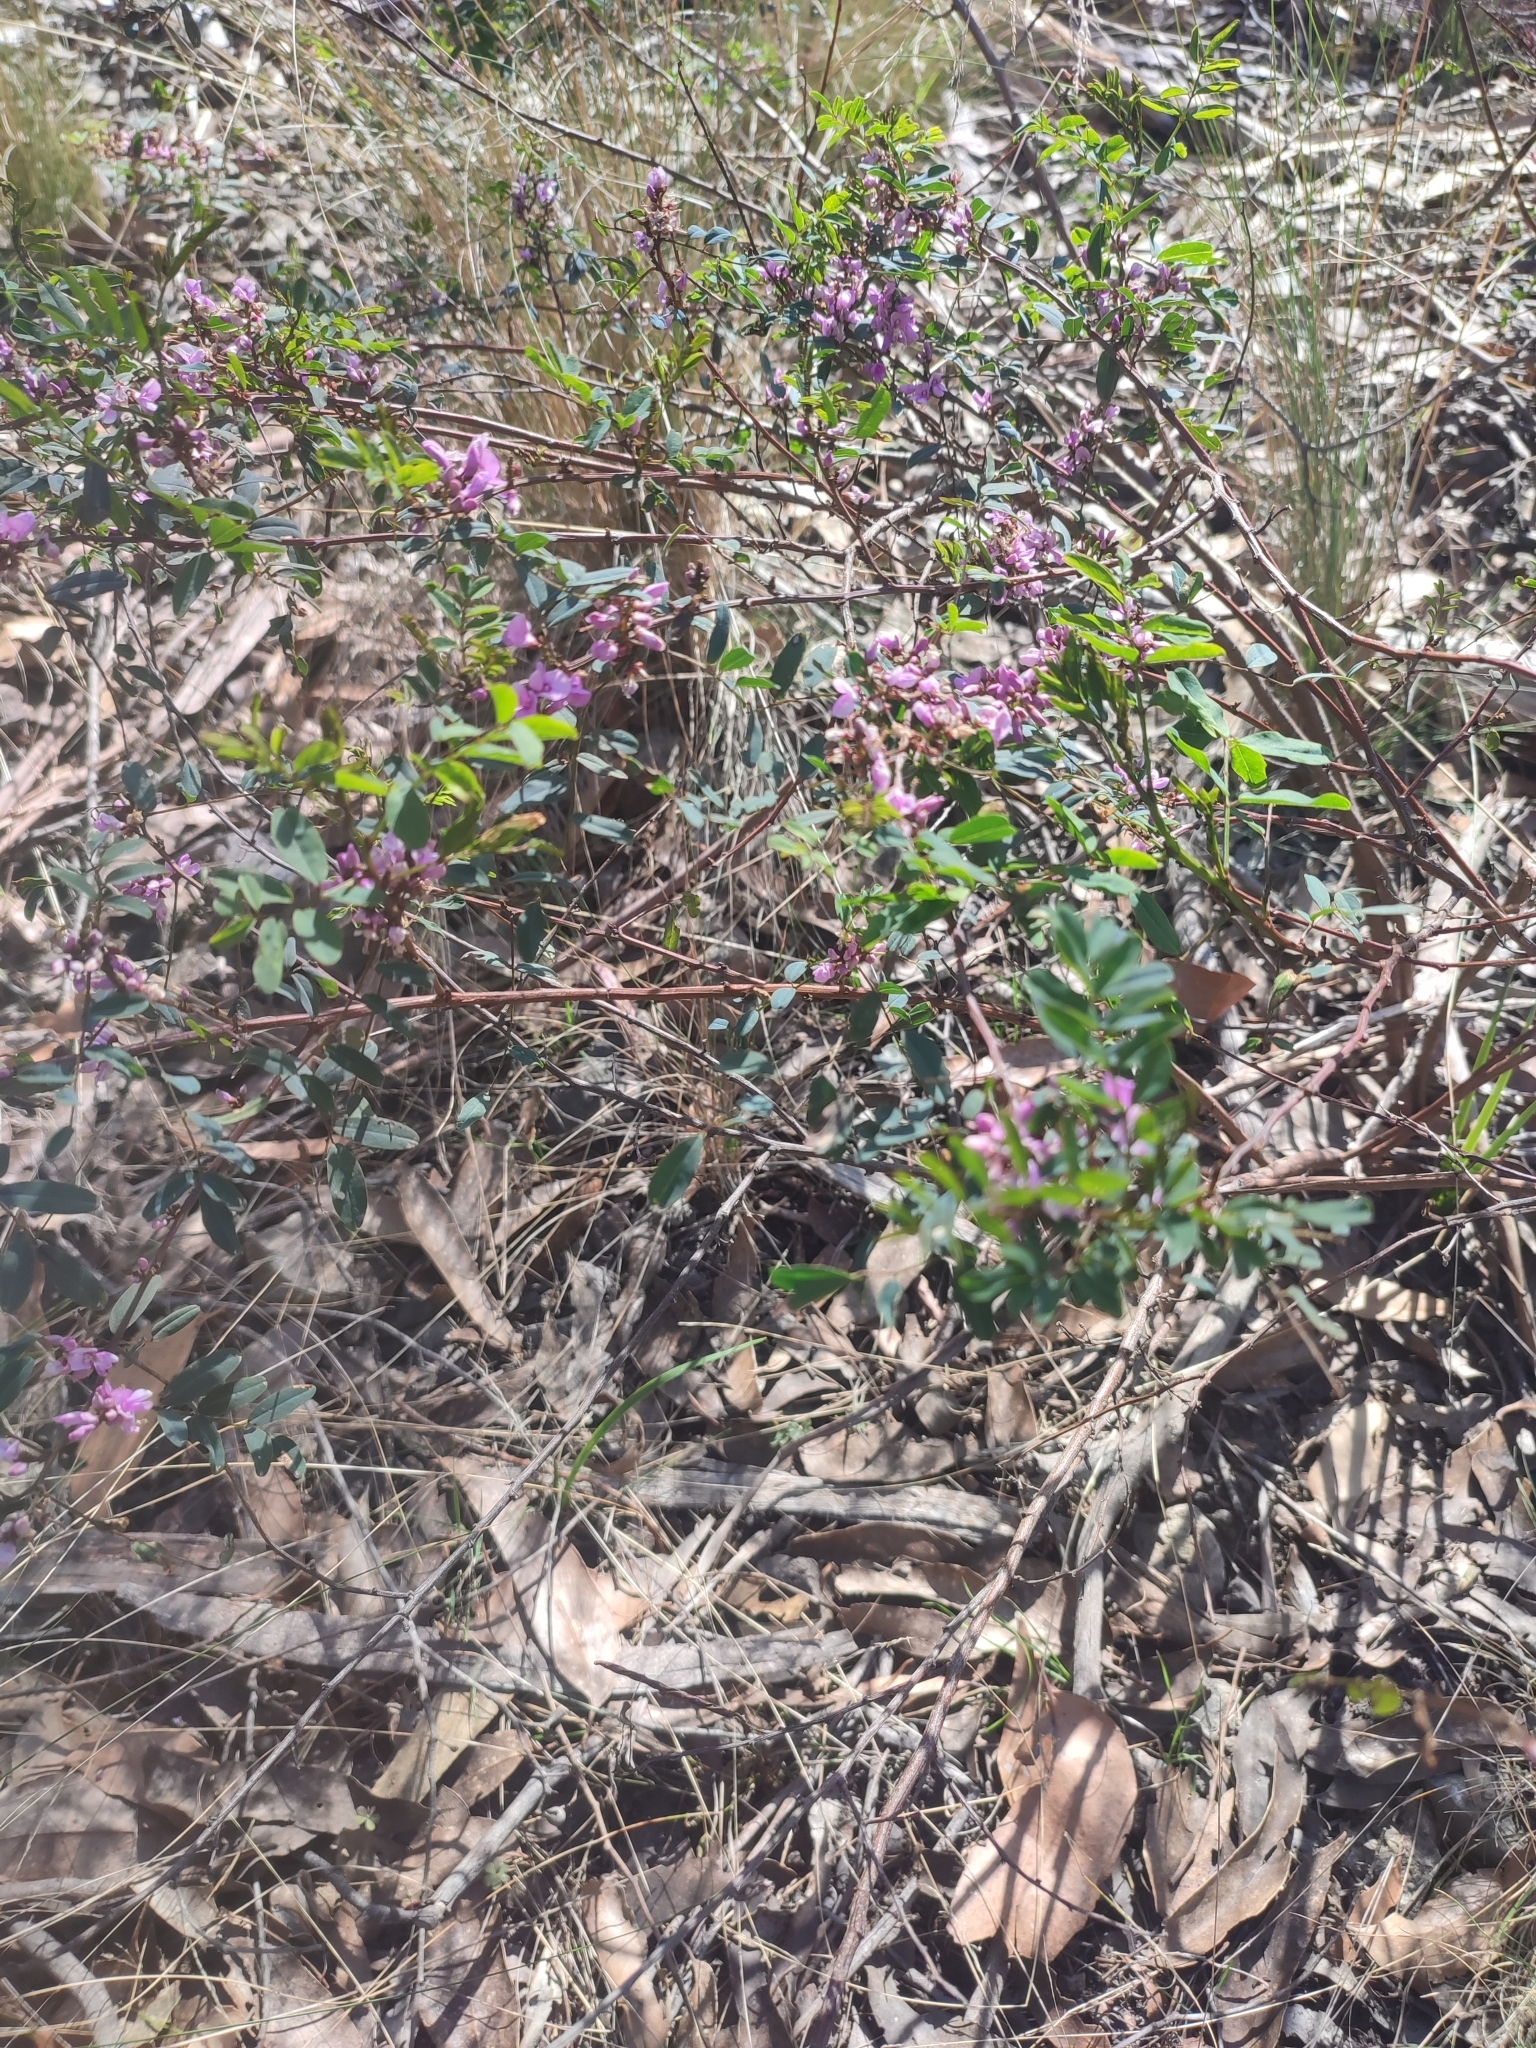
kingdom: Plantae
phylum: Tracheophyta
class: Magnoliopsida
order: Fabales
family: Fabaceae
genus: Indigofera
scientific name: Indigofera australis
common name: Australian indigo
